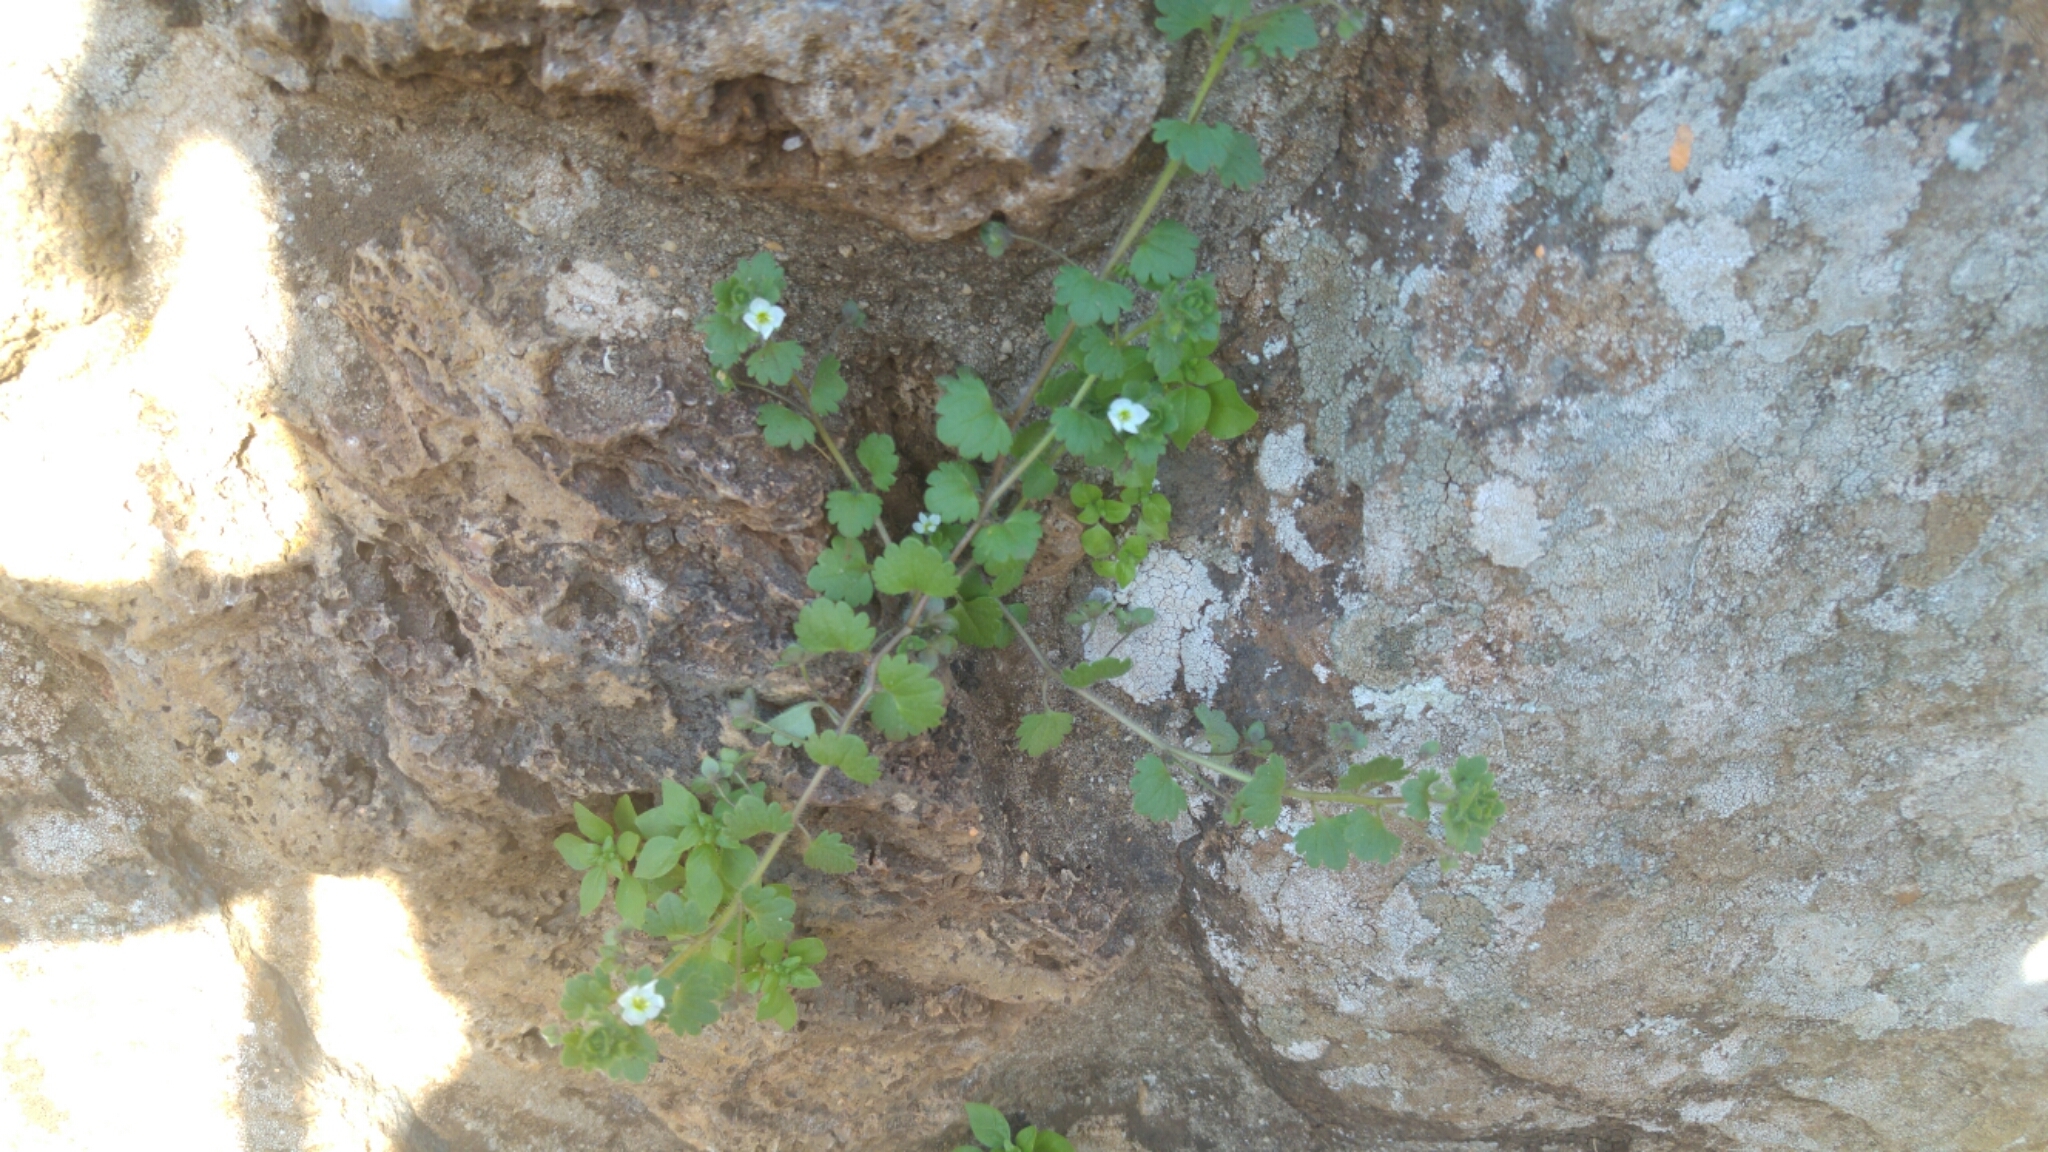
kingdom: Plantae
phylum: Tracheophyta
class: Magnoliopsida
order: Lamiales
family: Plantaginaceae
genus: Veronica
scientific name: Veronica cymbalaria
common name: Pale speedwell
